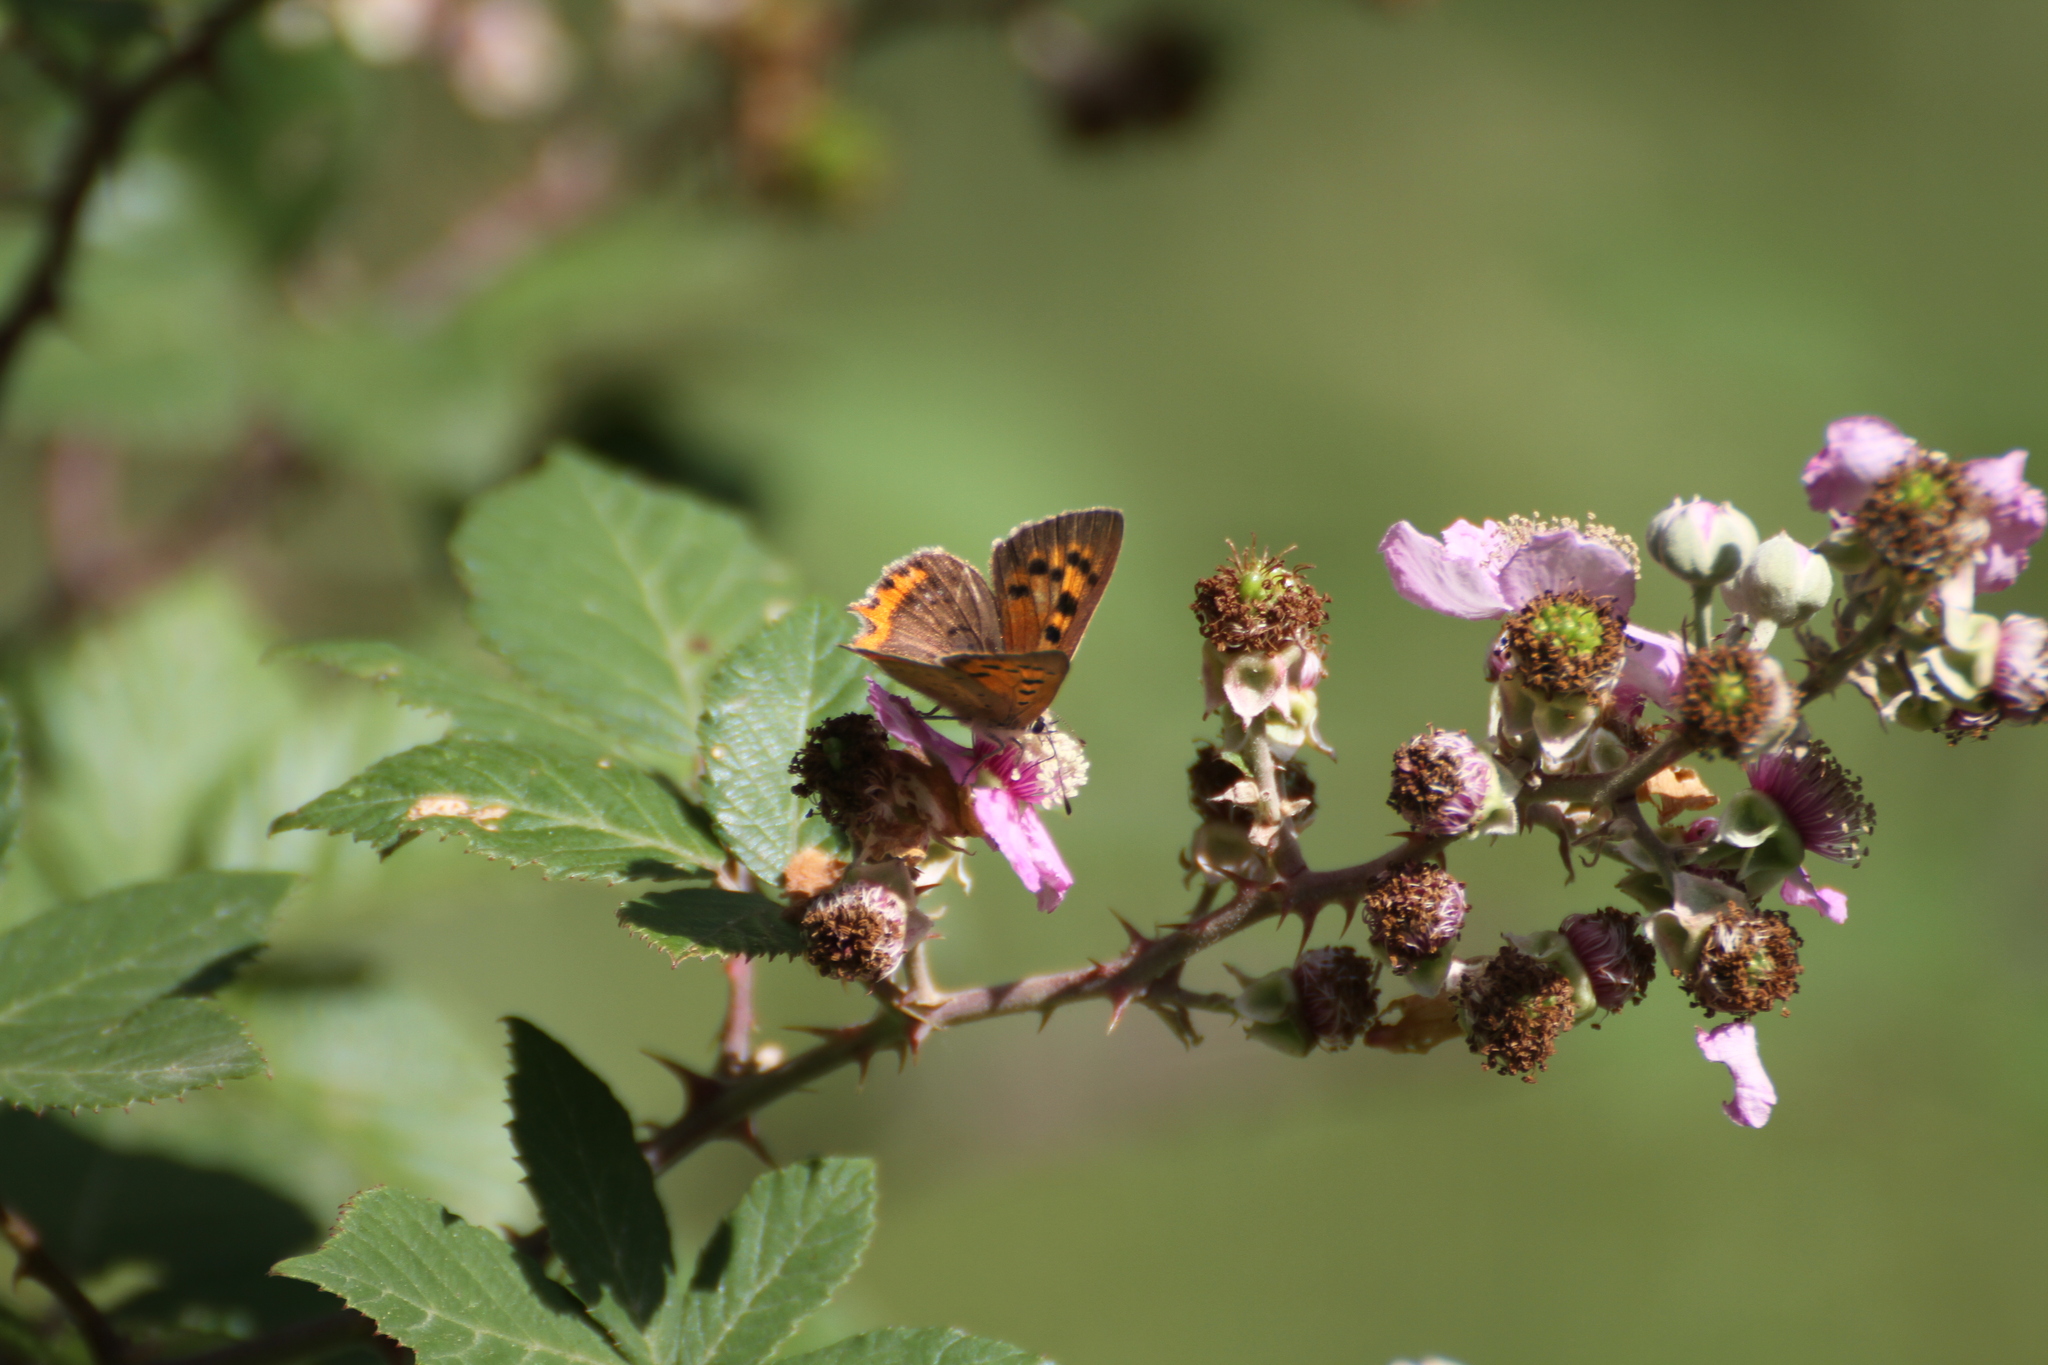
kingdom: Animalia
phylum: Arthropoda
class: Insecta
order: Lepidoptera
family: Lycaenidae
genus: Lycaena
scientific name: Lycaena phlaeas
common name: Small copper
